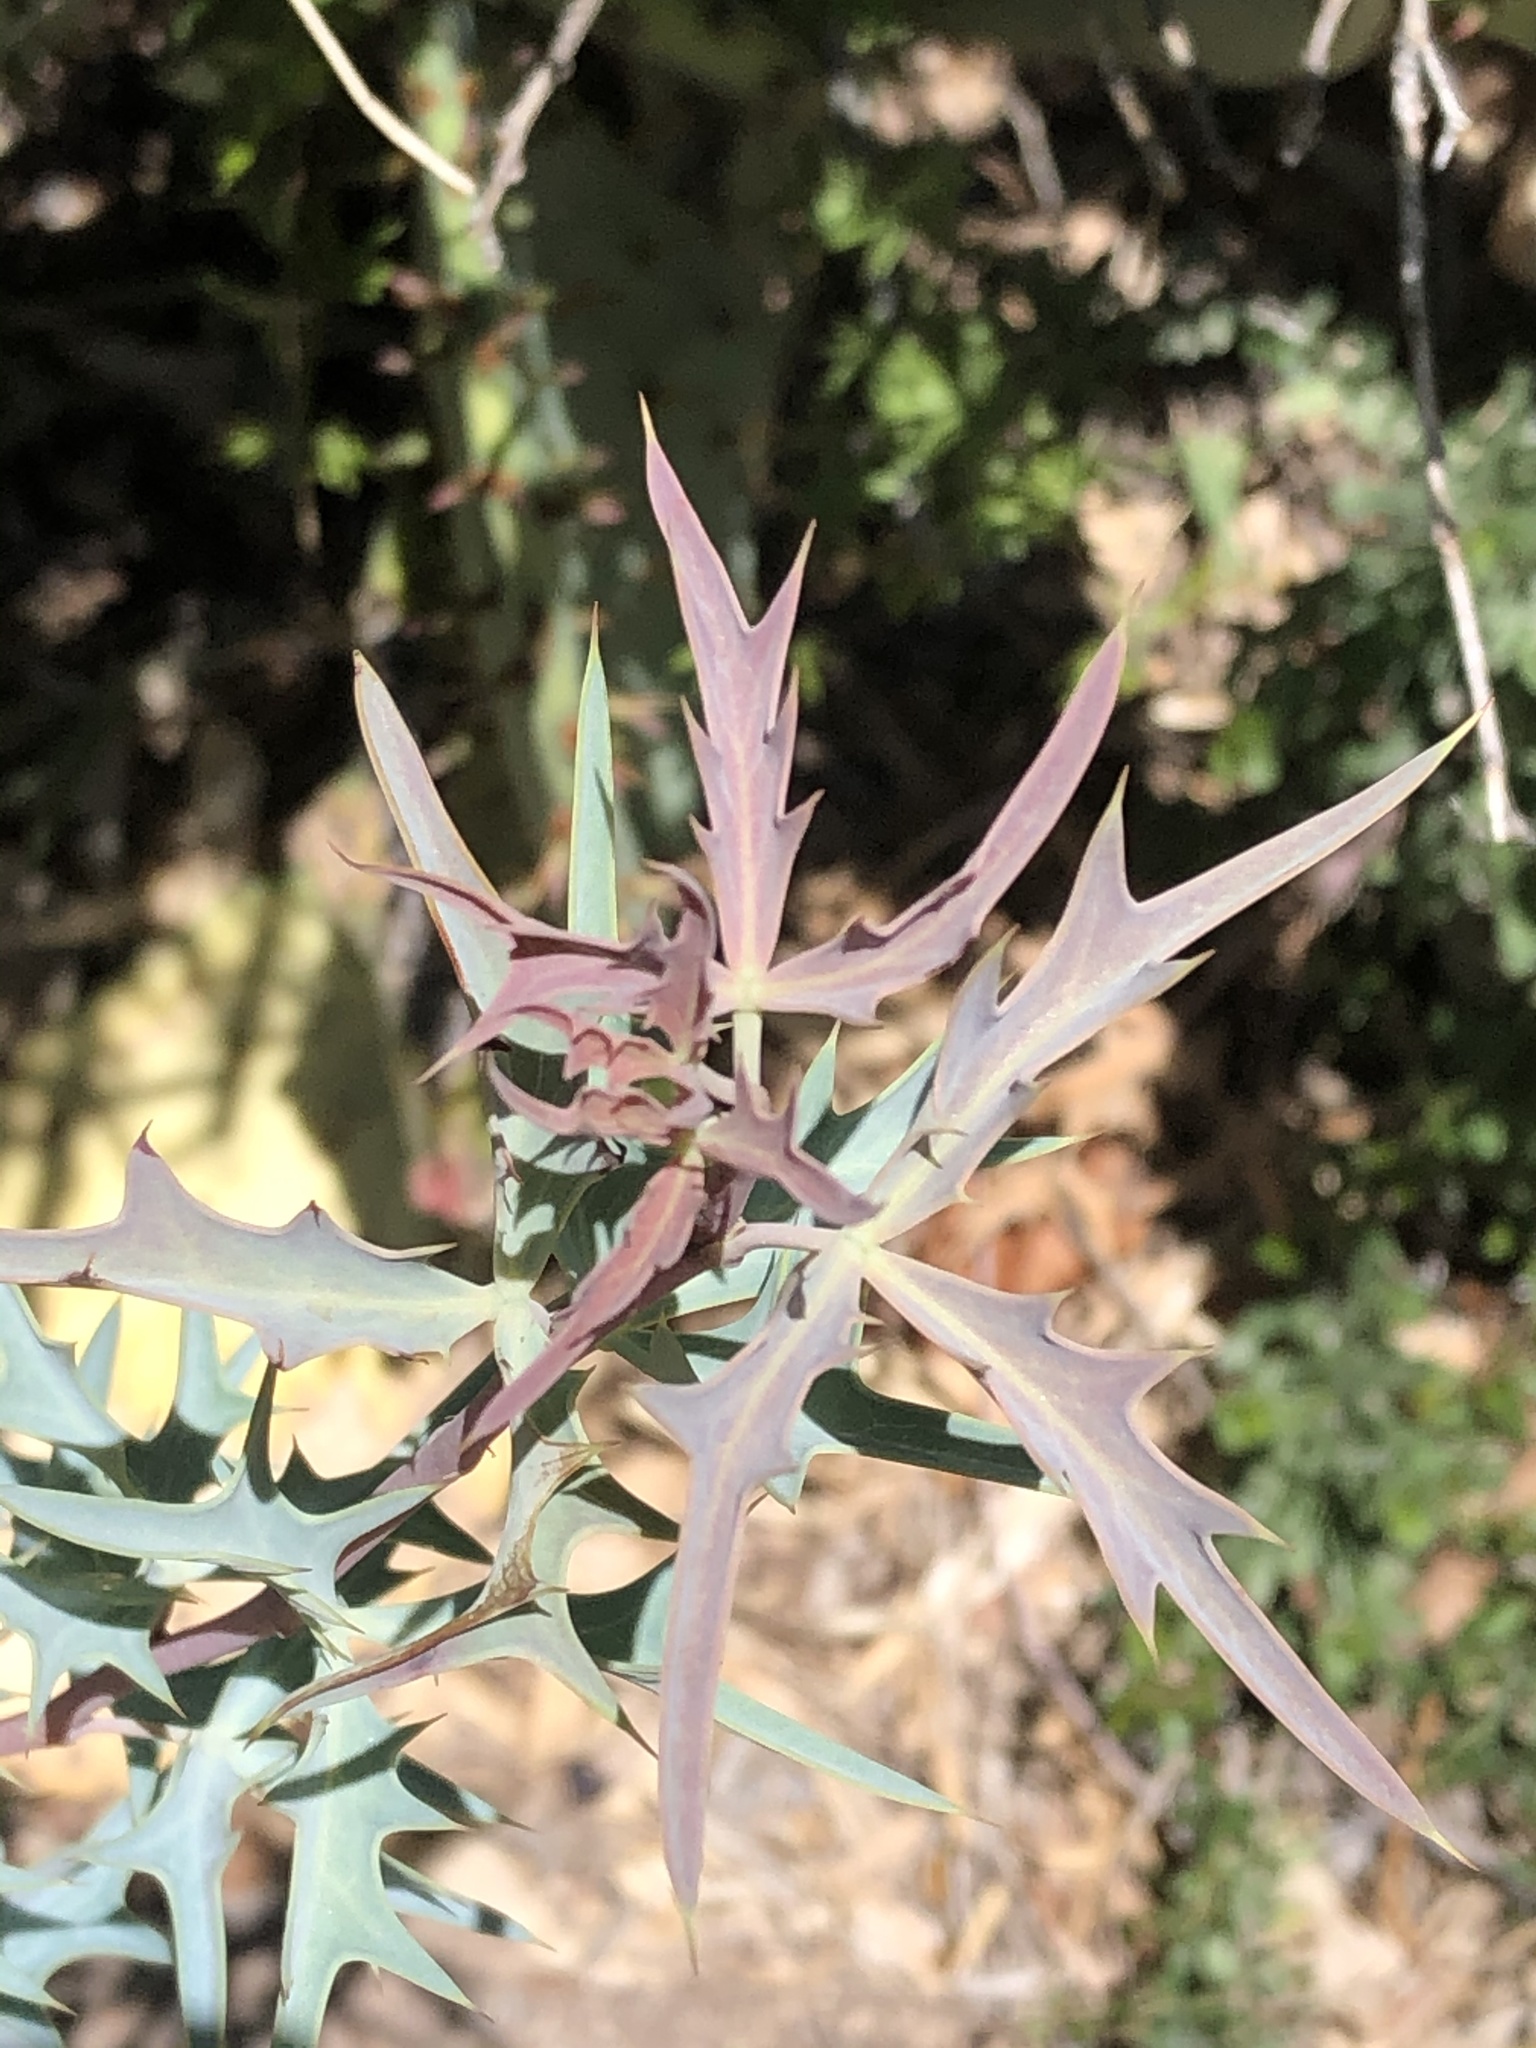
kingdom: Plantae
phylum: Tracheophyta
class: Magnoliopsida
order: Ranunculales
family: Berberidaceae
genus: Alloberberis
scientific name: Alloberberis trifoliolata
